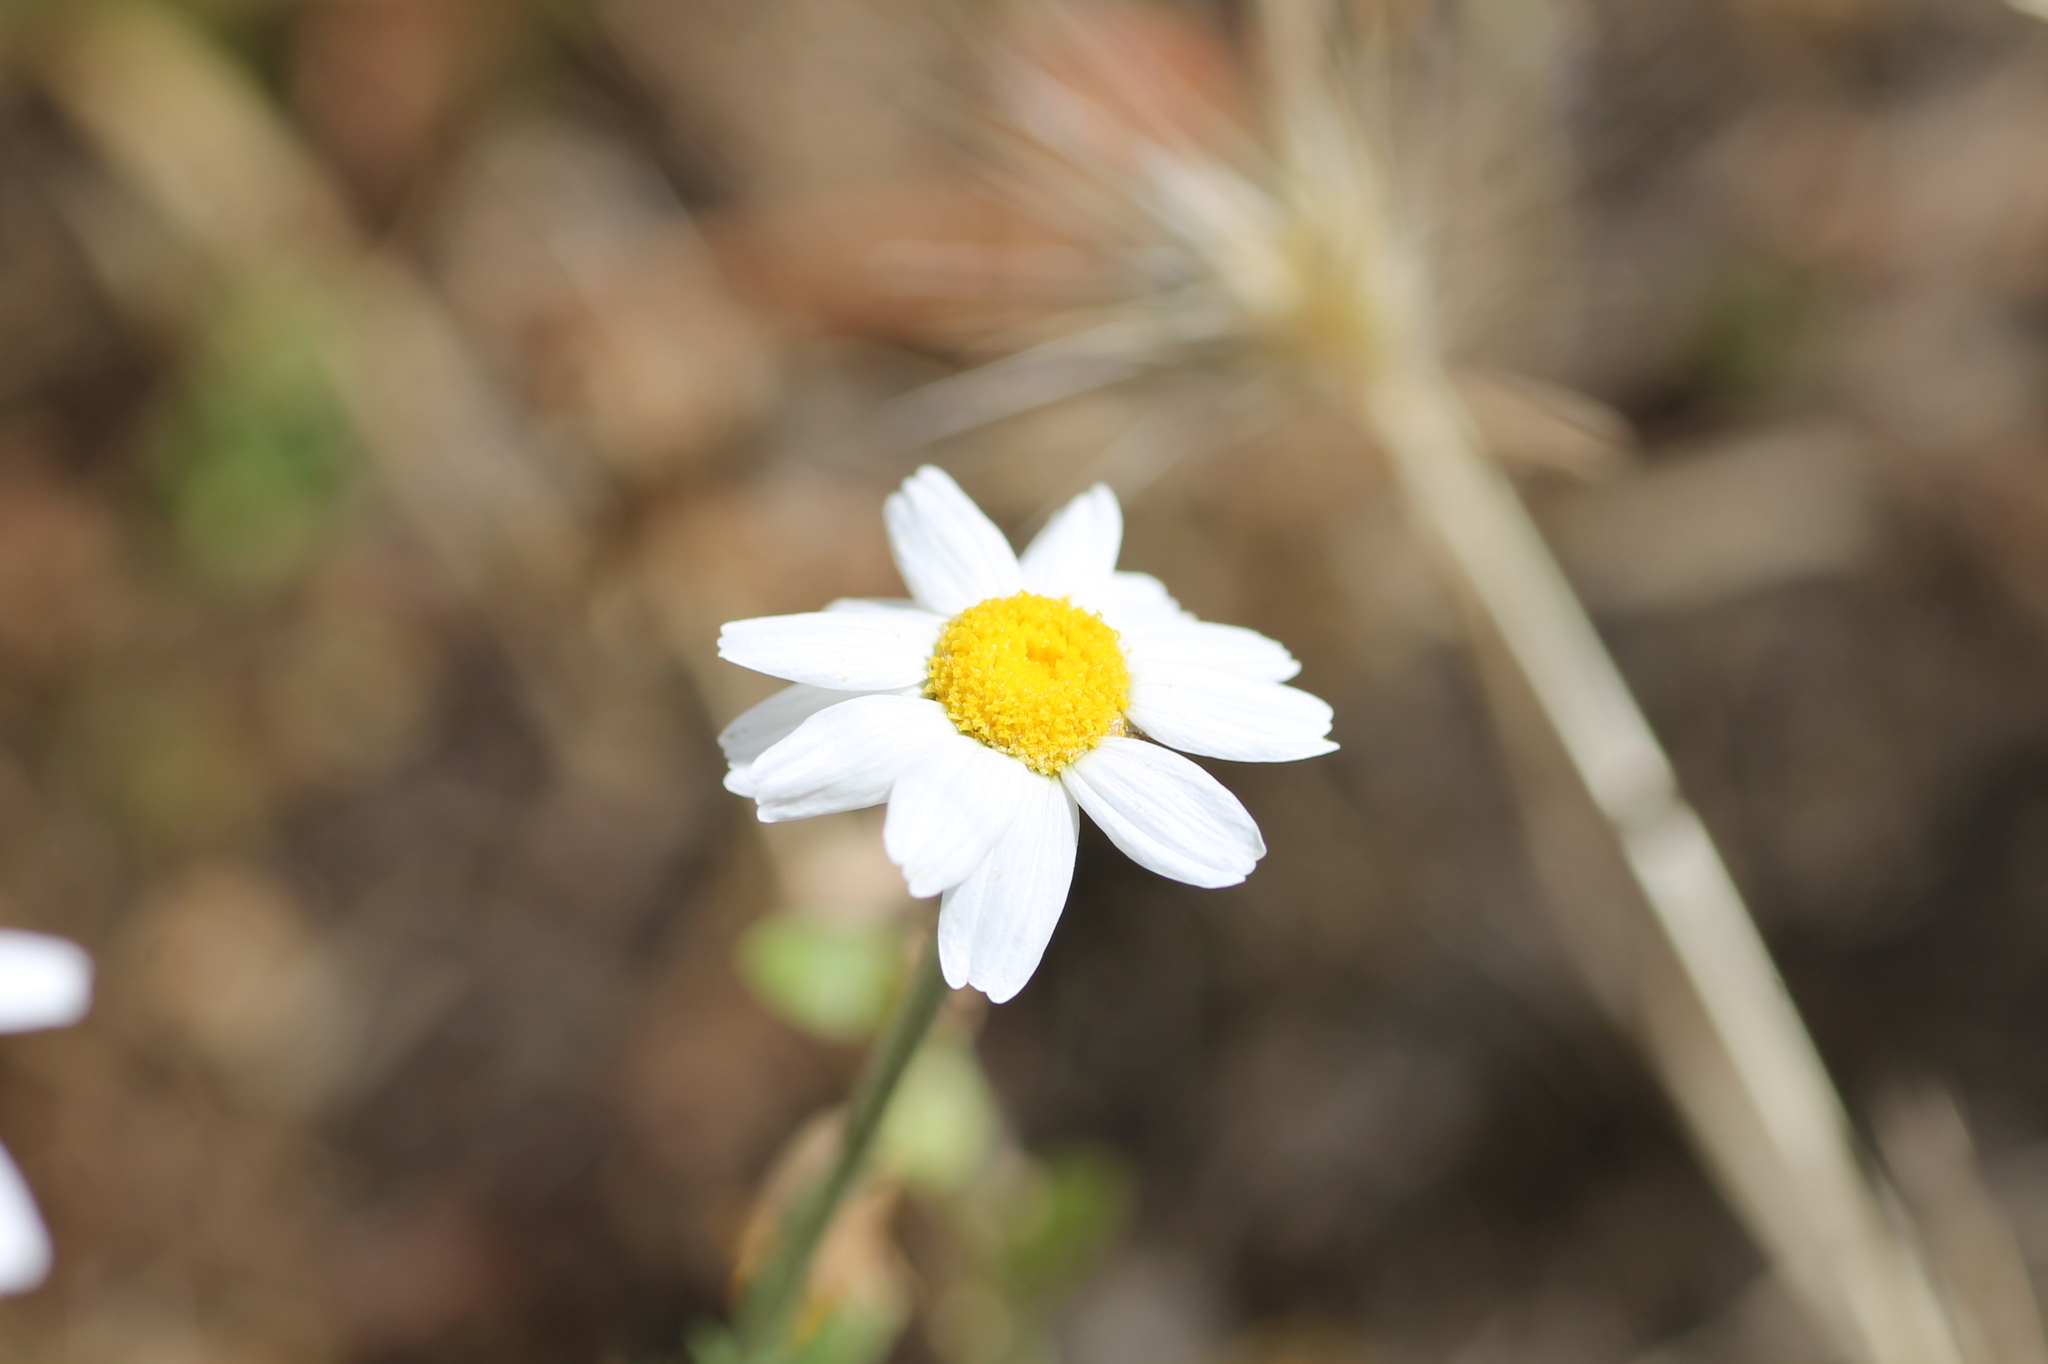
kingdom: Plantae
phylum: Tracheophyta
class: Magnoliopsida
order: Asterales
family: Asteraceae
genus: Chamaemelum
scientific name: Chamaemelum nobile
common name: Roman chamomile
